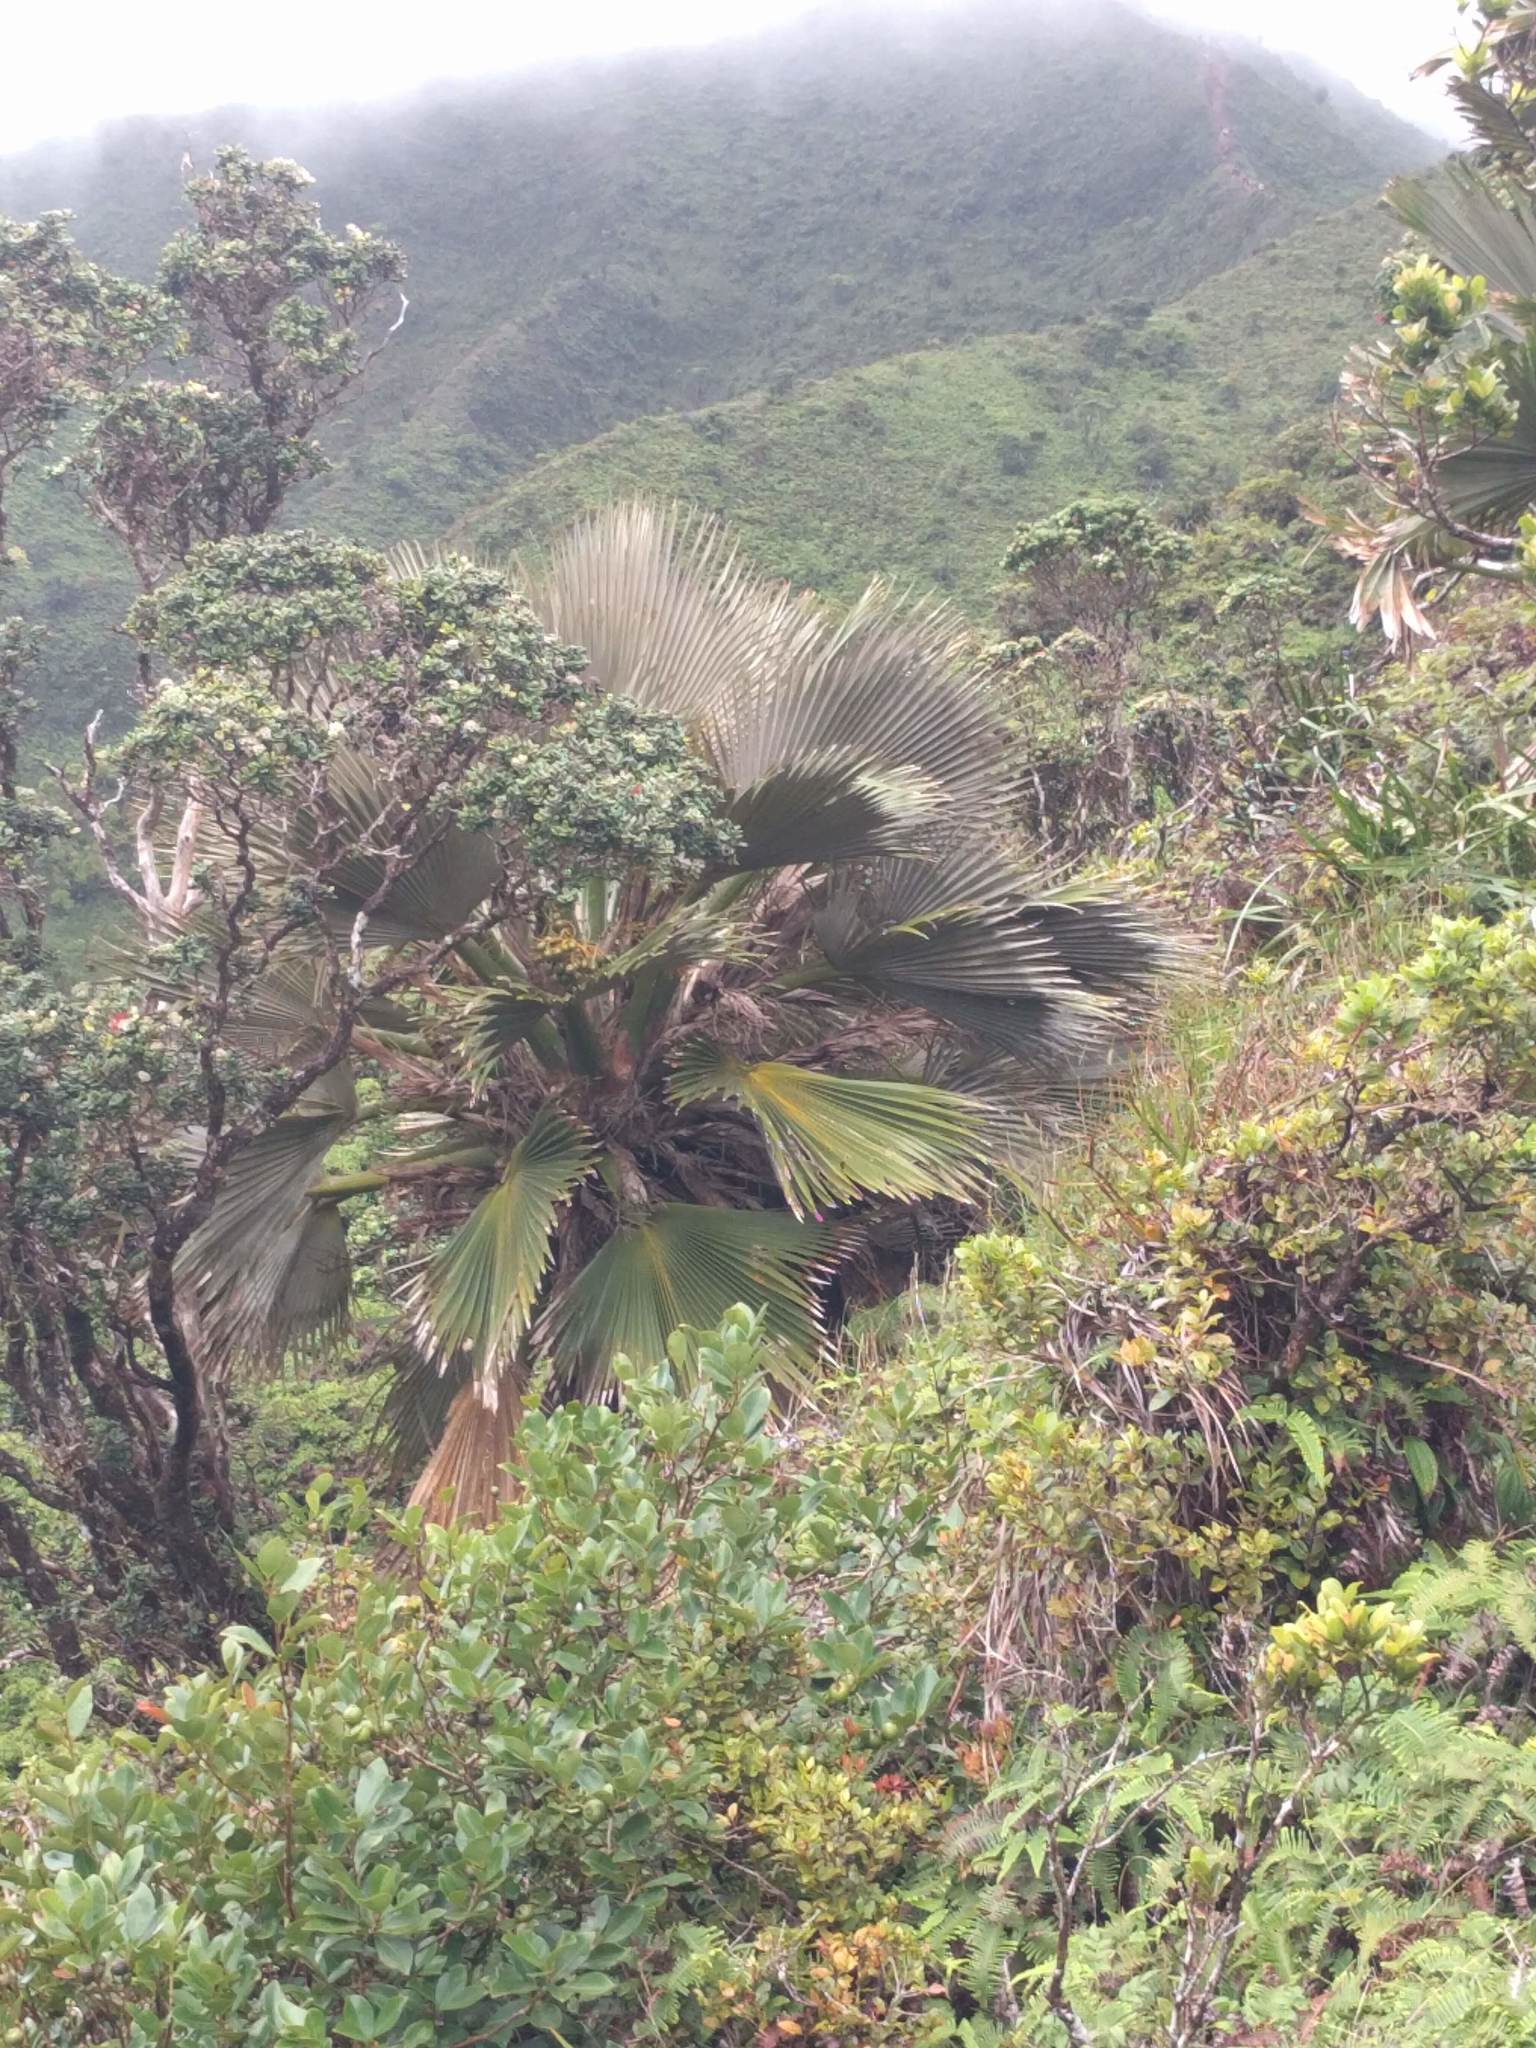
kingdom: Plantae
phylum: Tracheophyta
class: Liliopsida
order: Arecales
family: Arecaceae
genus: Pritchardia
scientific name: Pritchardia martii
